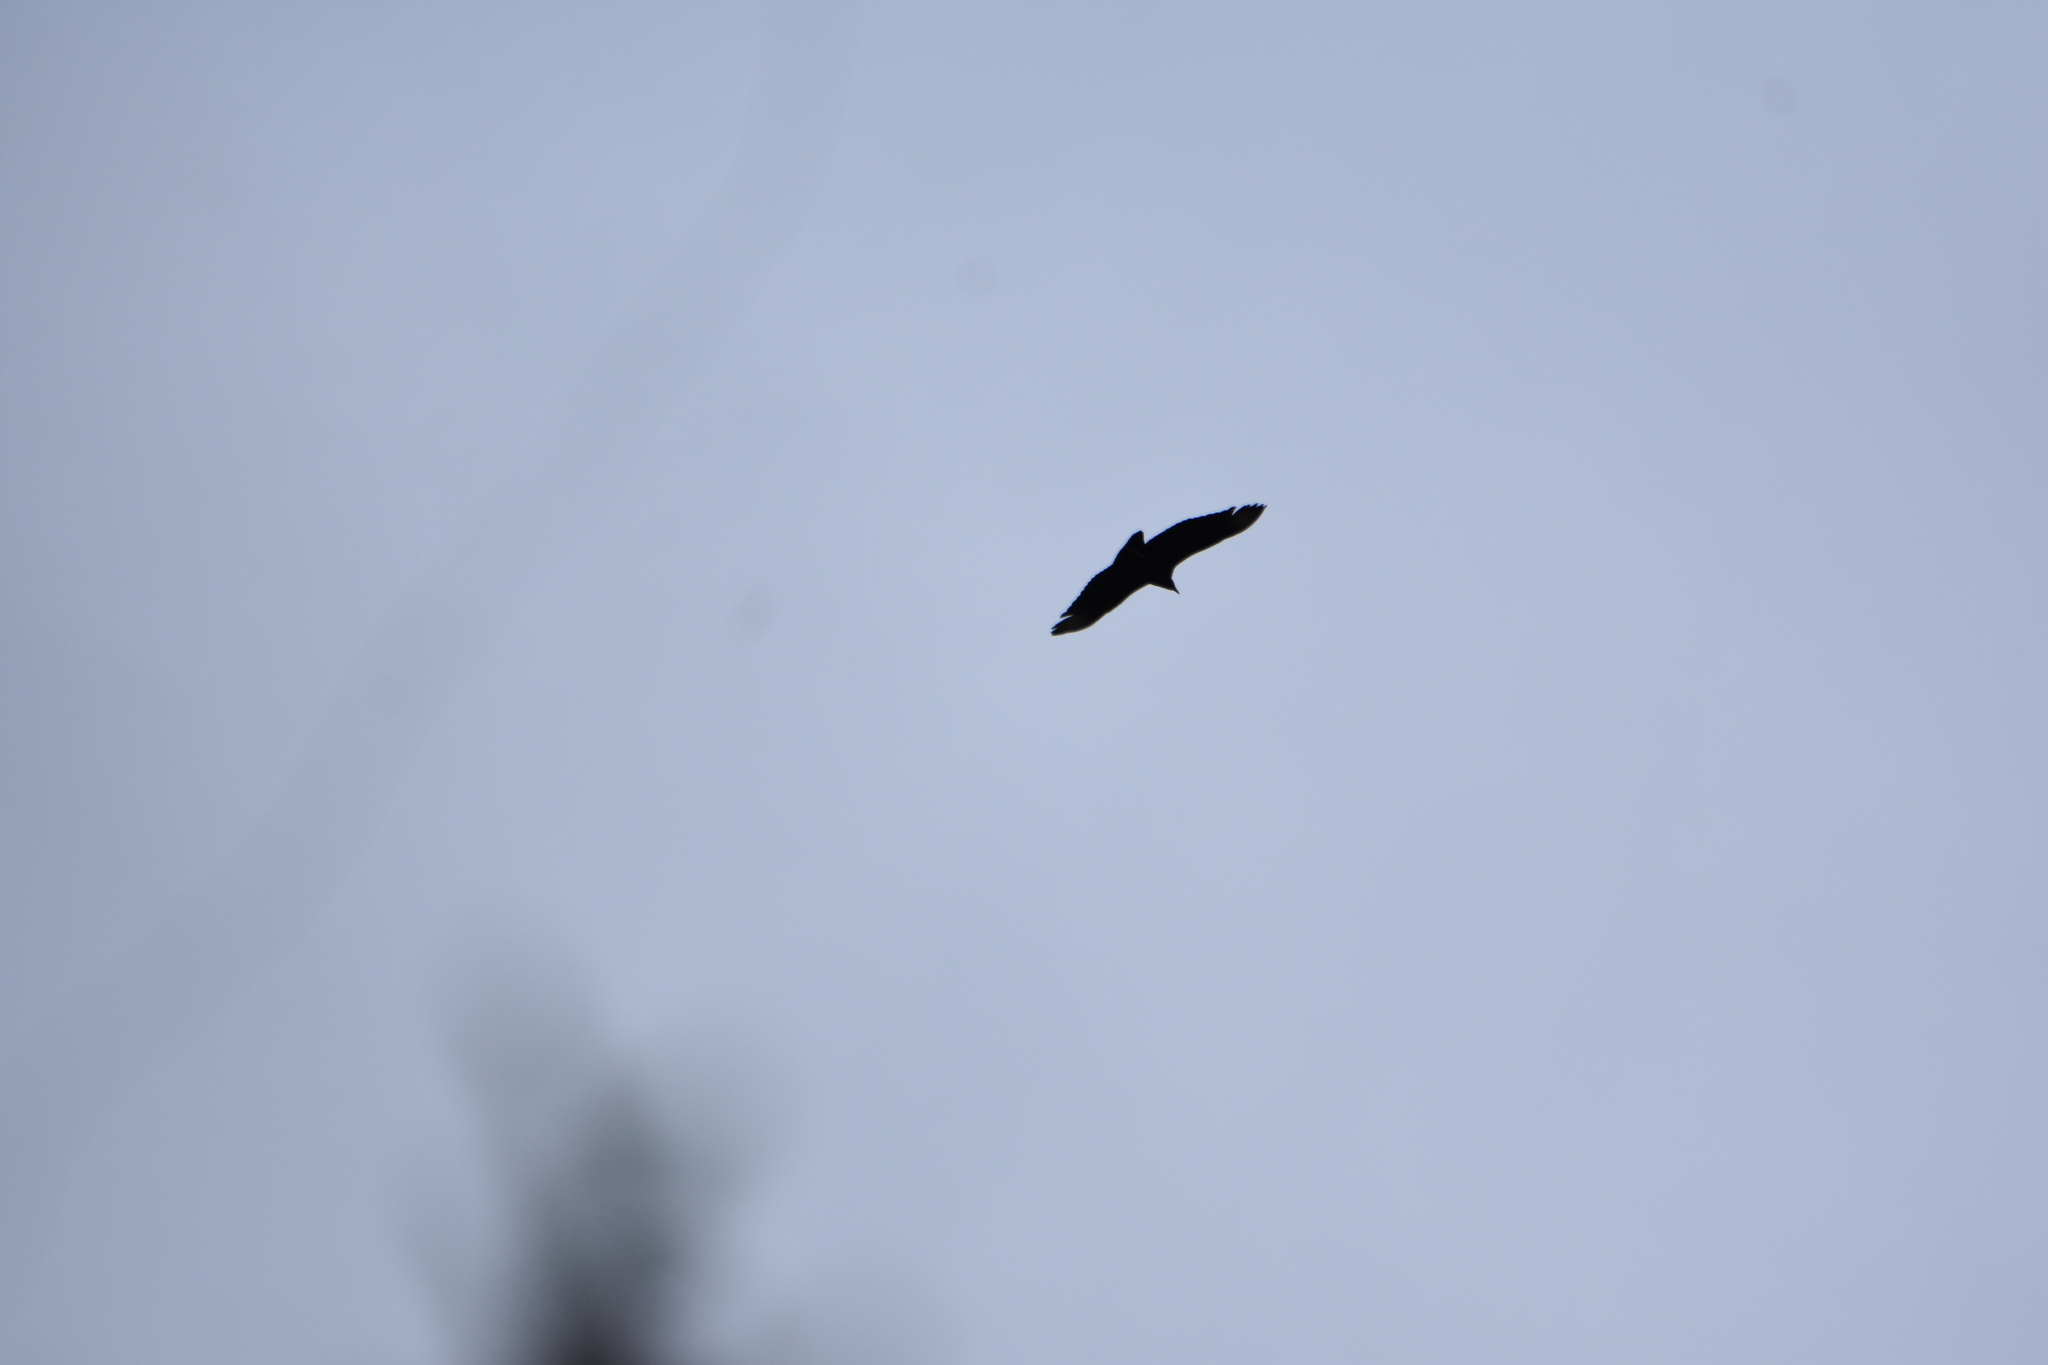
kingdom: Animalia
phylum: Chordata
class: Aves
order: Accipitriformes
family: Cathartidae
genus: Vultur
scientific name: Vultur gryphus
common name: Andean condor
